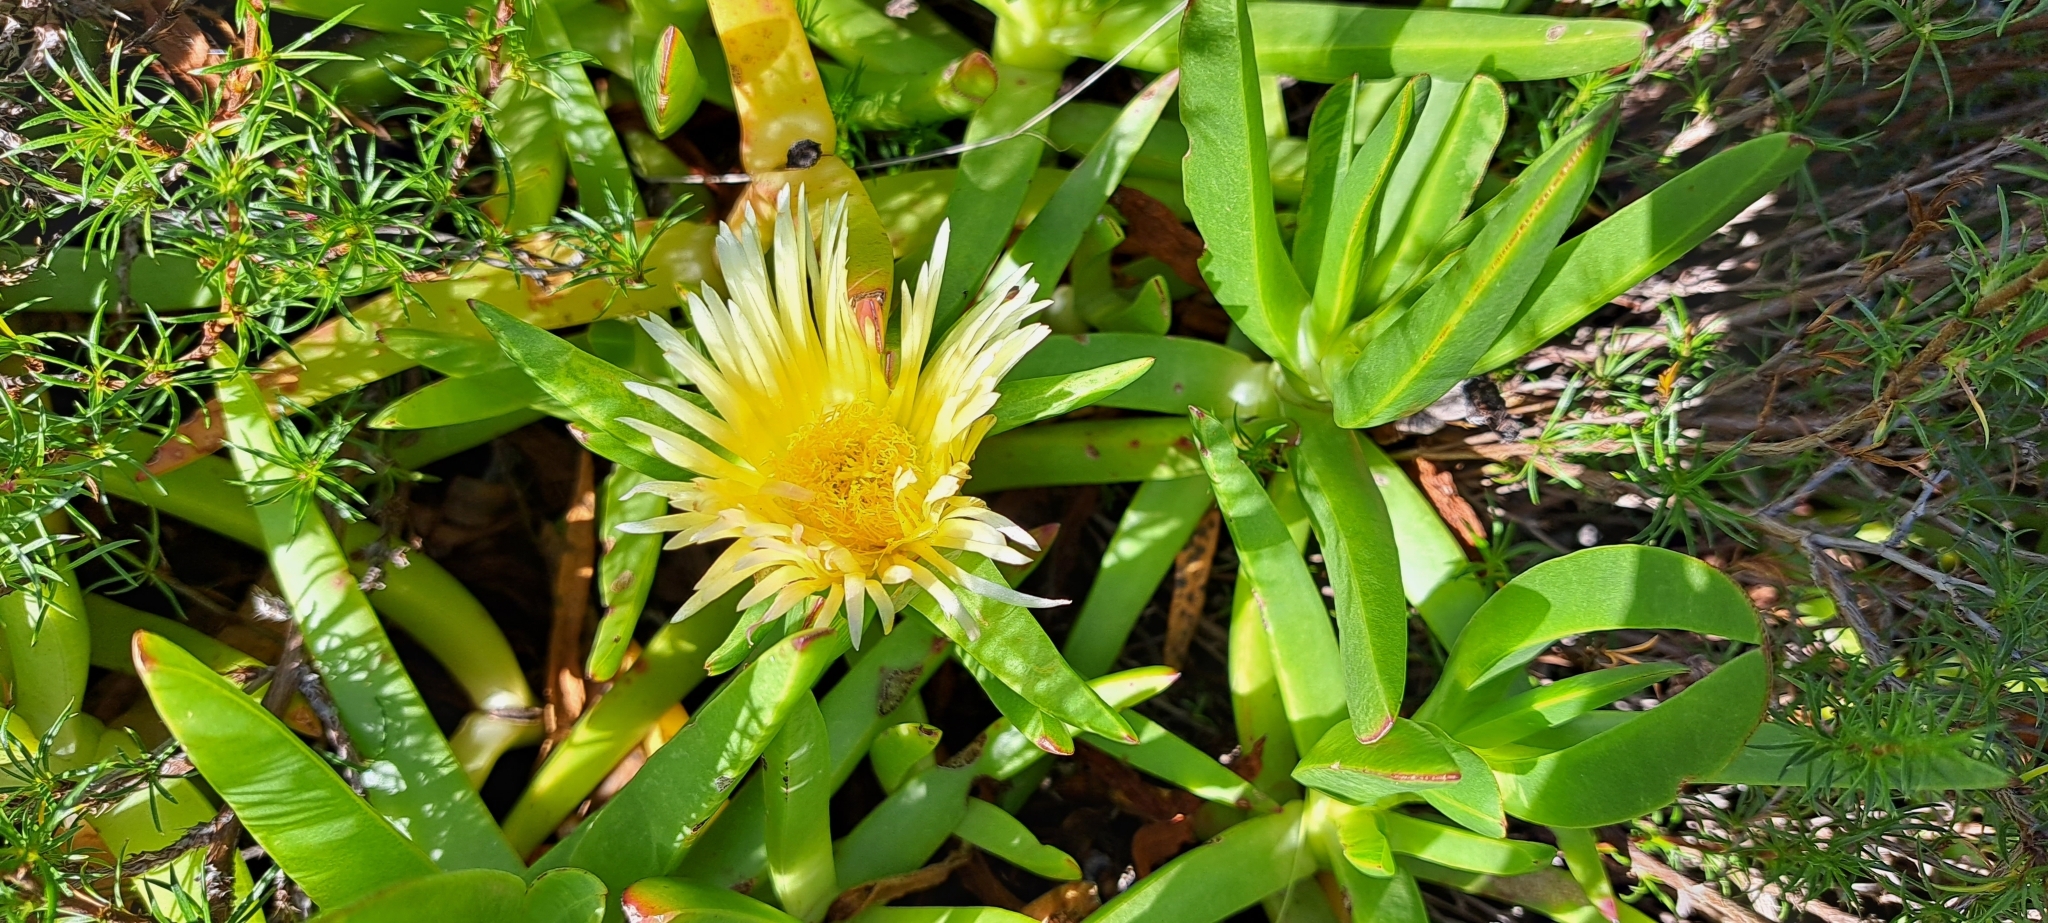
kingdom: Plantae
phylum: Tracheophyta
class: Magnoliopsida
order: Caryophyllales
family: Aizoaceae
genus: Carpobrotus
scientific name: Carpobrotus edulis
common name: Hottentot-fig
